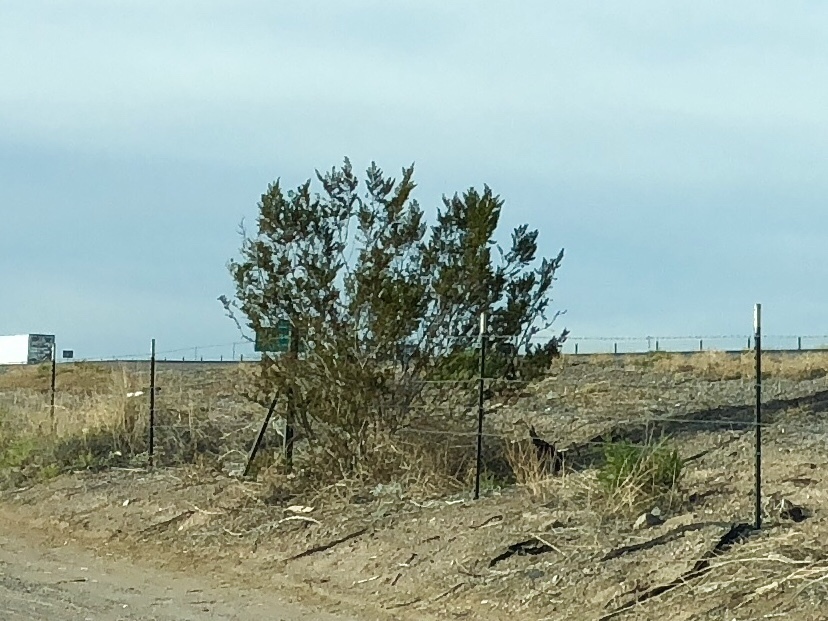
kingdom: Plantae
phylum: Tracheophyta
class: Magnoliopsida
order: Zygophyllales
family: Zygophyllaceae
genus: Larrea
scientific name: Larrea tridentata
